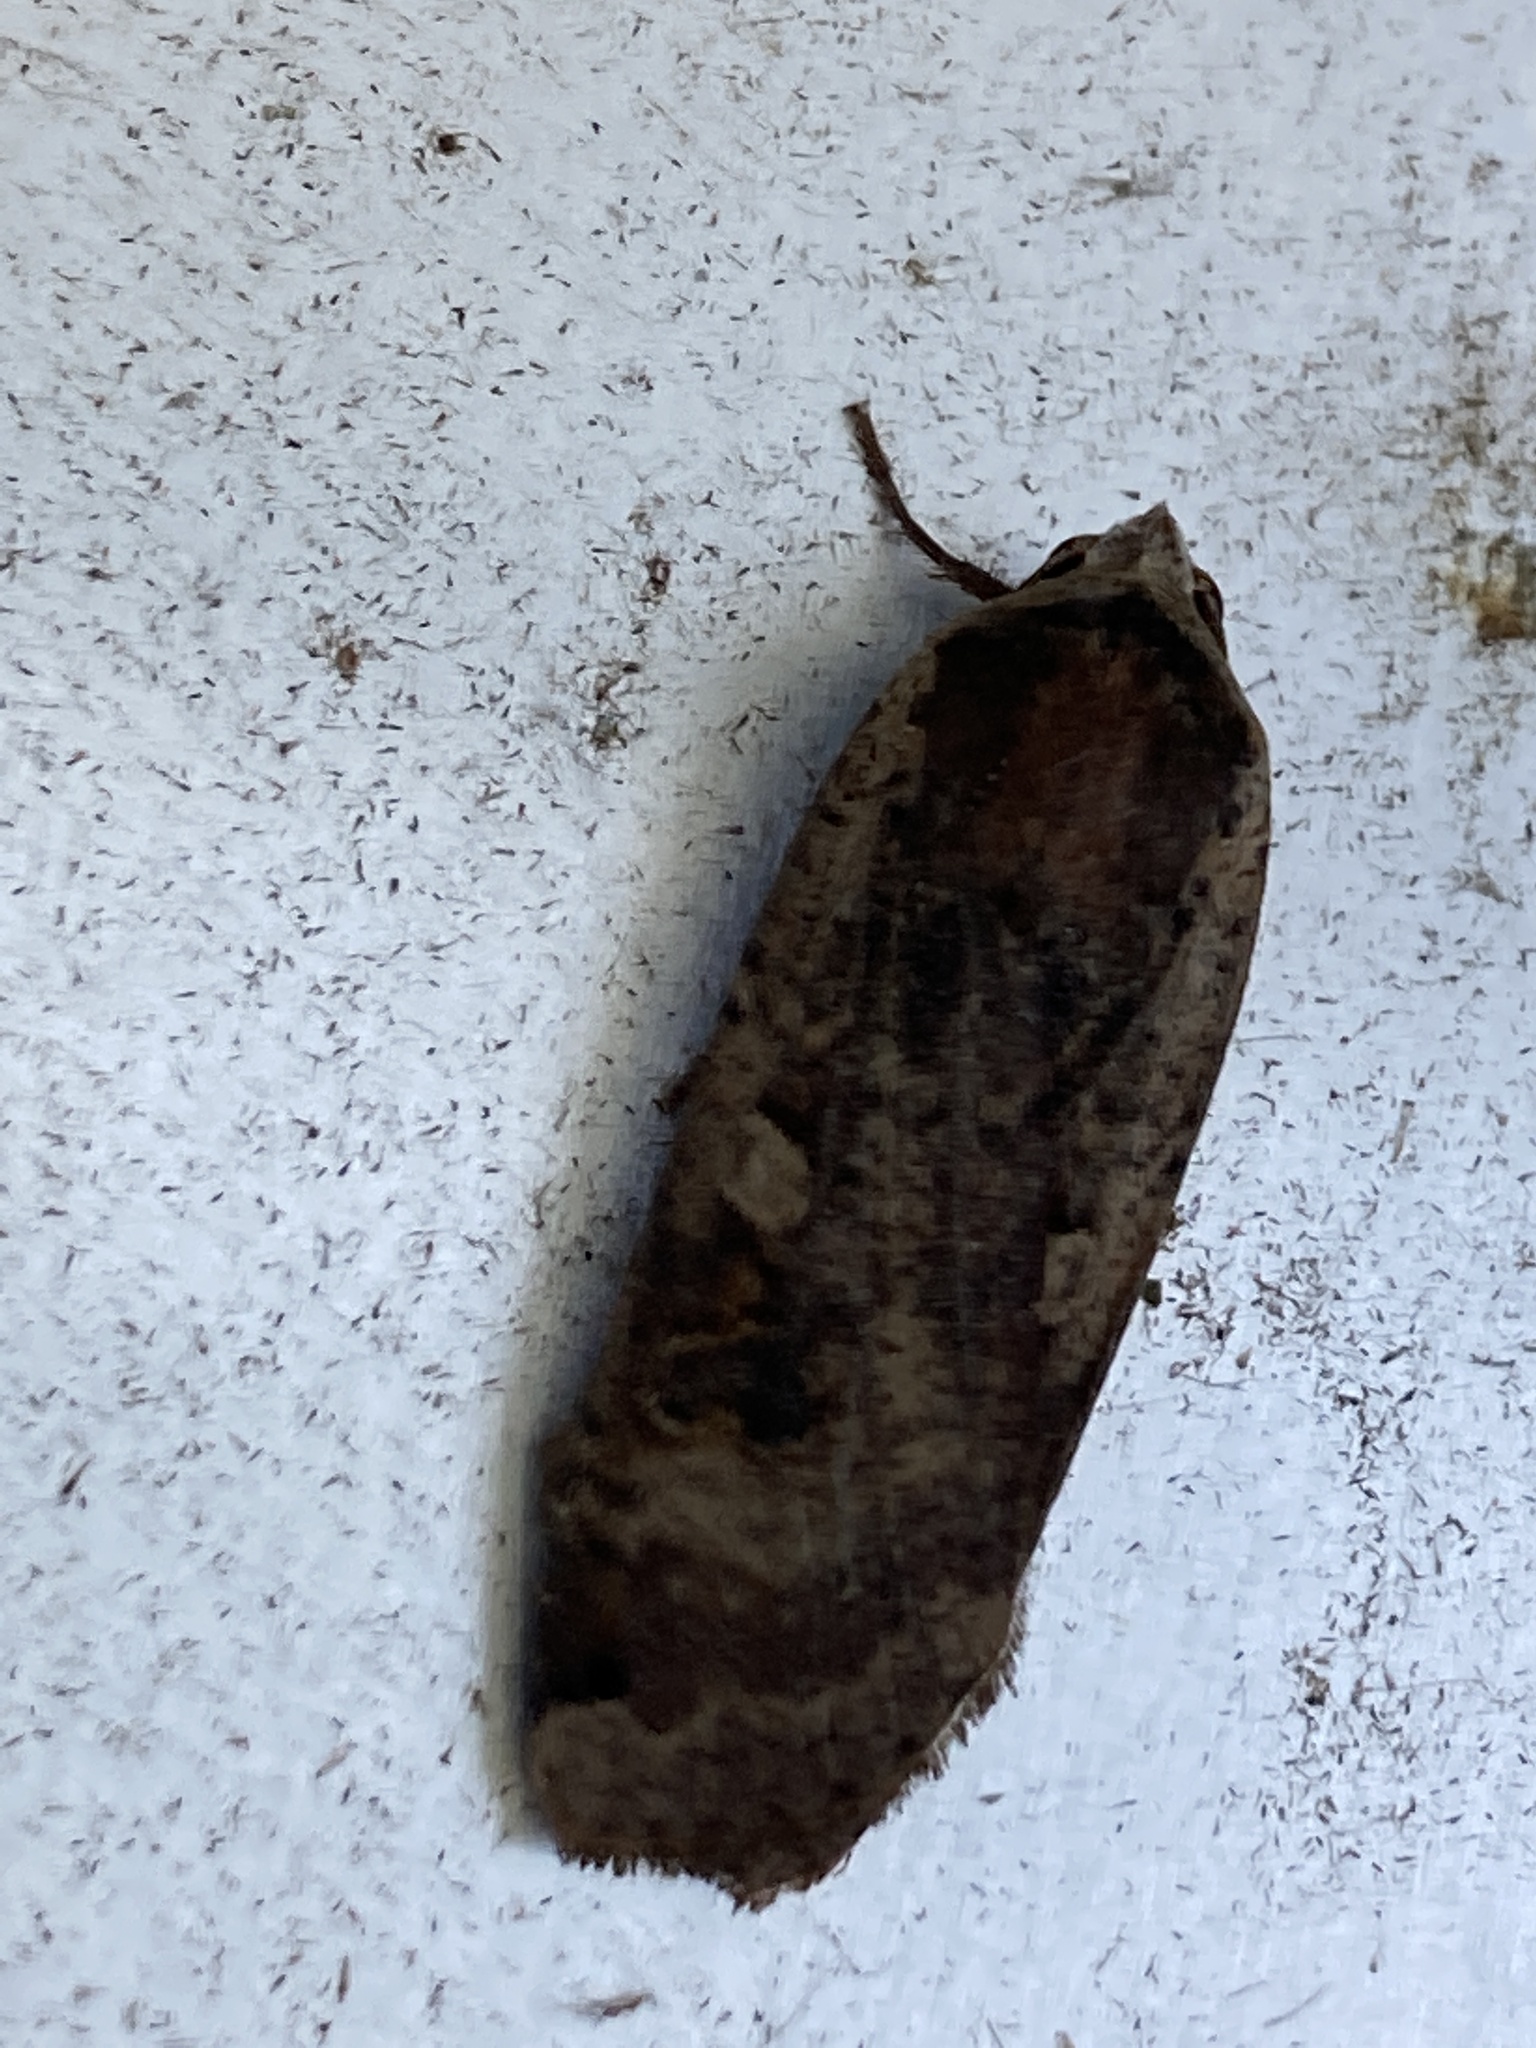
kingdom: Animalia
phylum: Arthropoda
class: Insecta
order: Lepidoptera
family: Noctuidae
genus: Noctua
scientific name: Noctua pronuba
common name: Large yellow underwing
